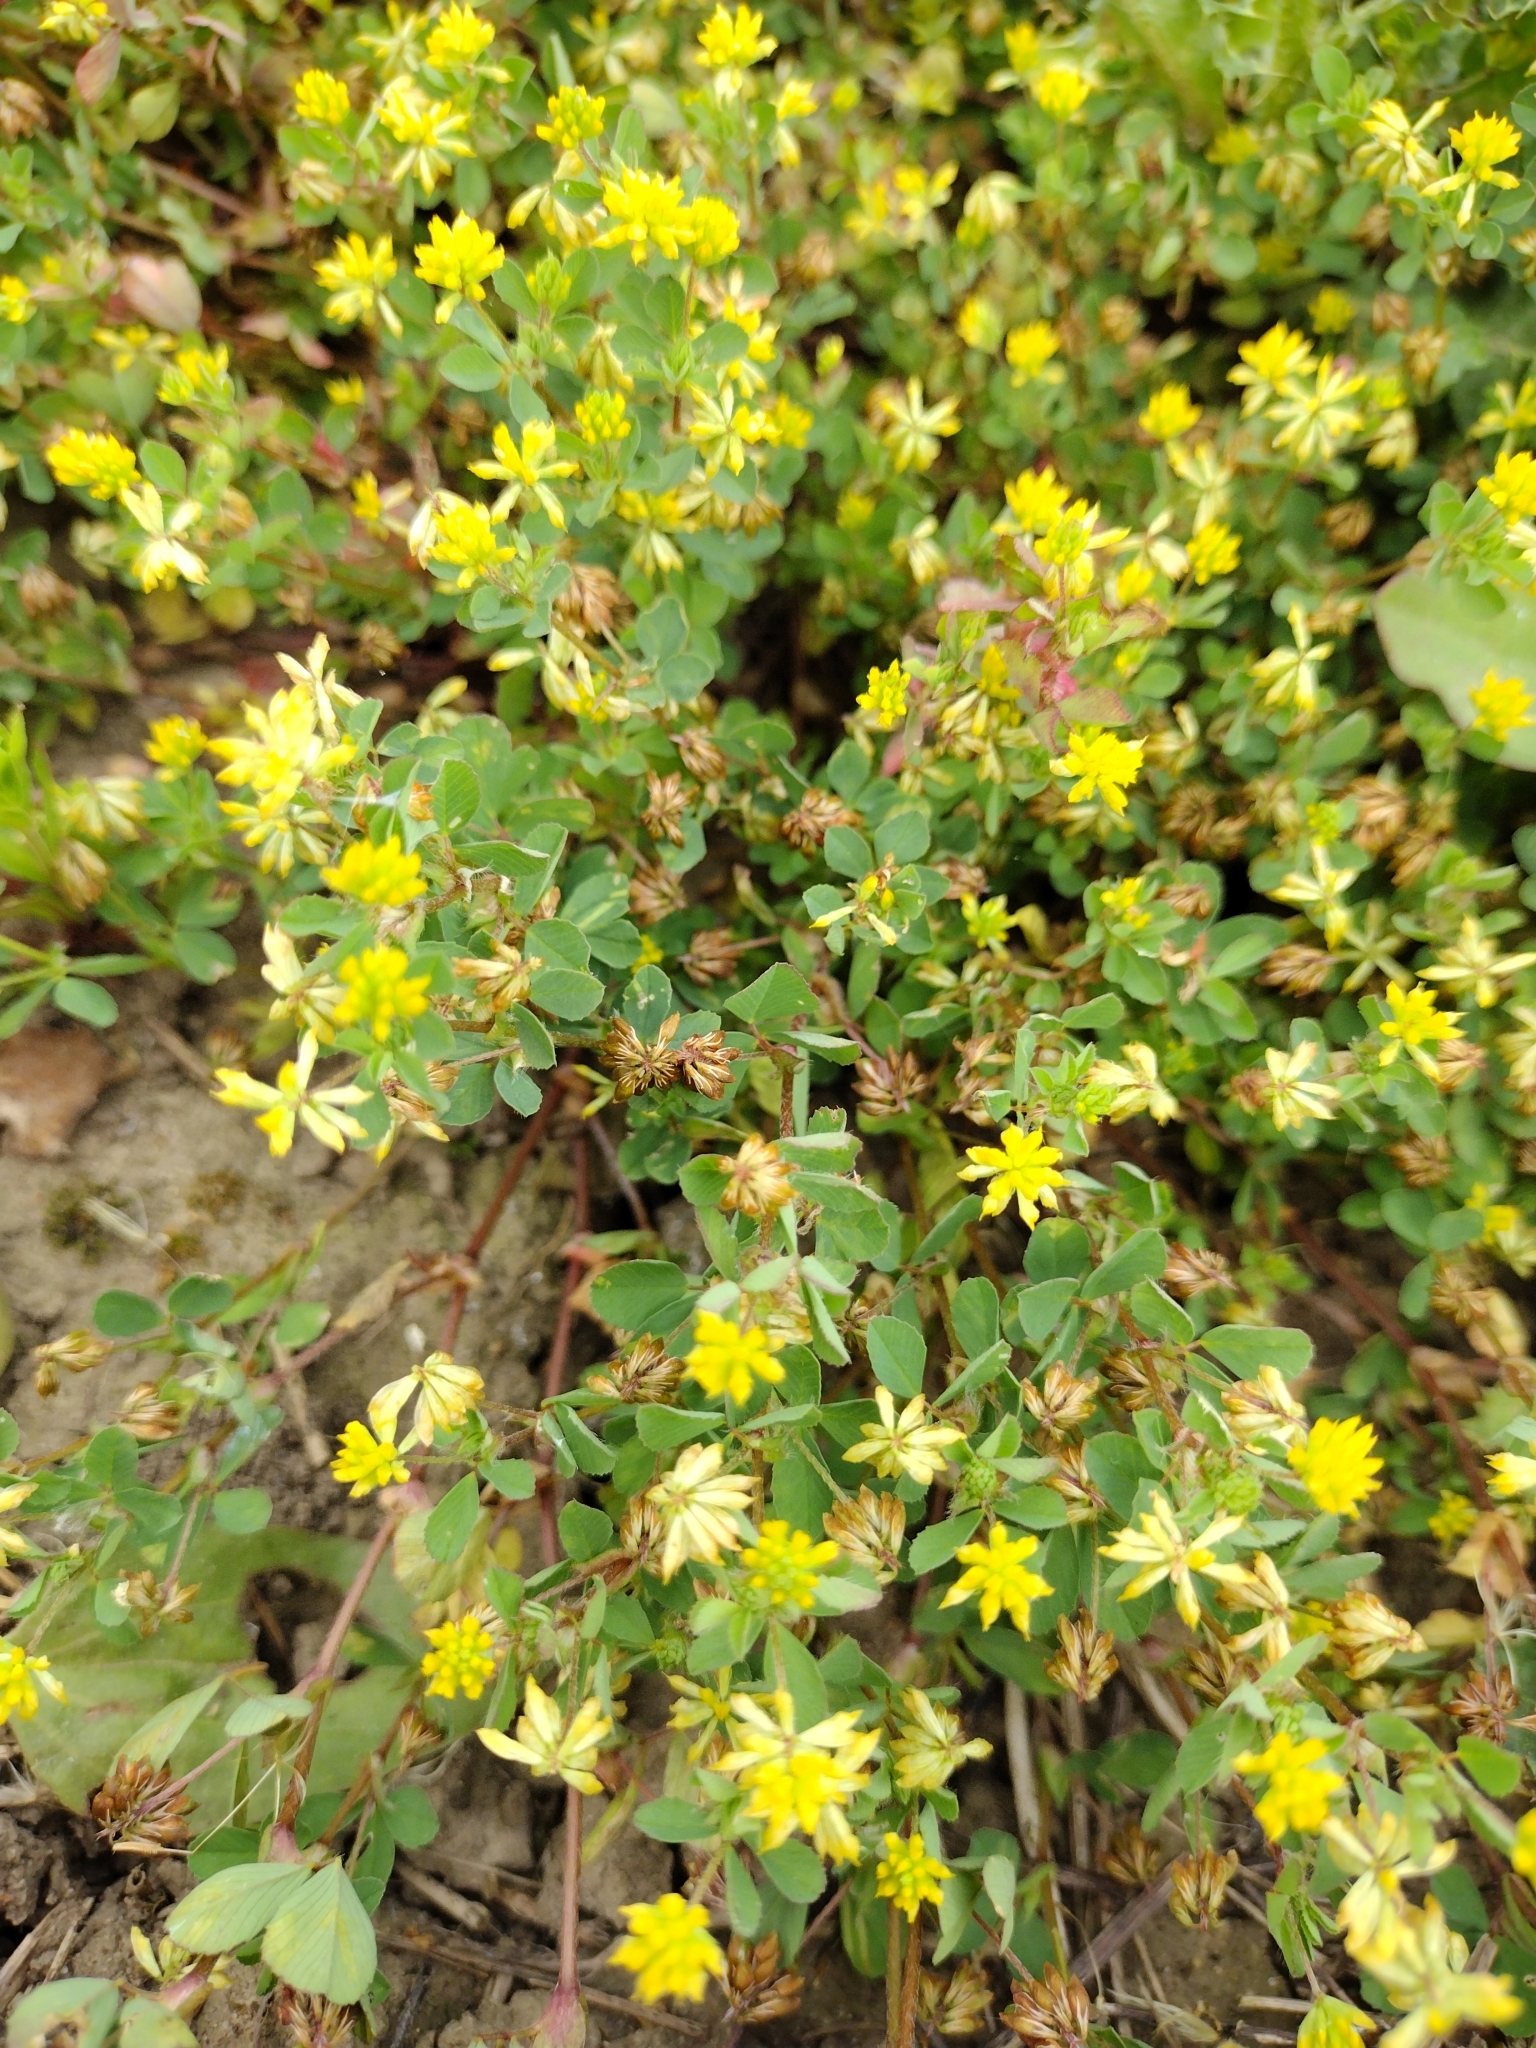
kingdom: Plantae
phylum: Tracheophyta
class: Magnoliopsida
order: Fabales
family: Fabaceae
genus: Trifolium
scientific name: Trifolium dubium
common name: Suckling clover
